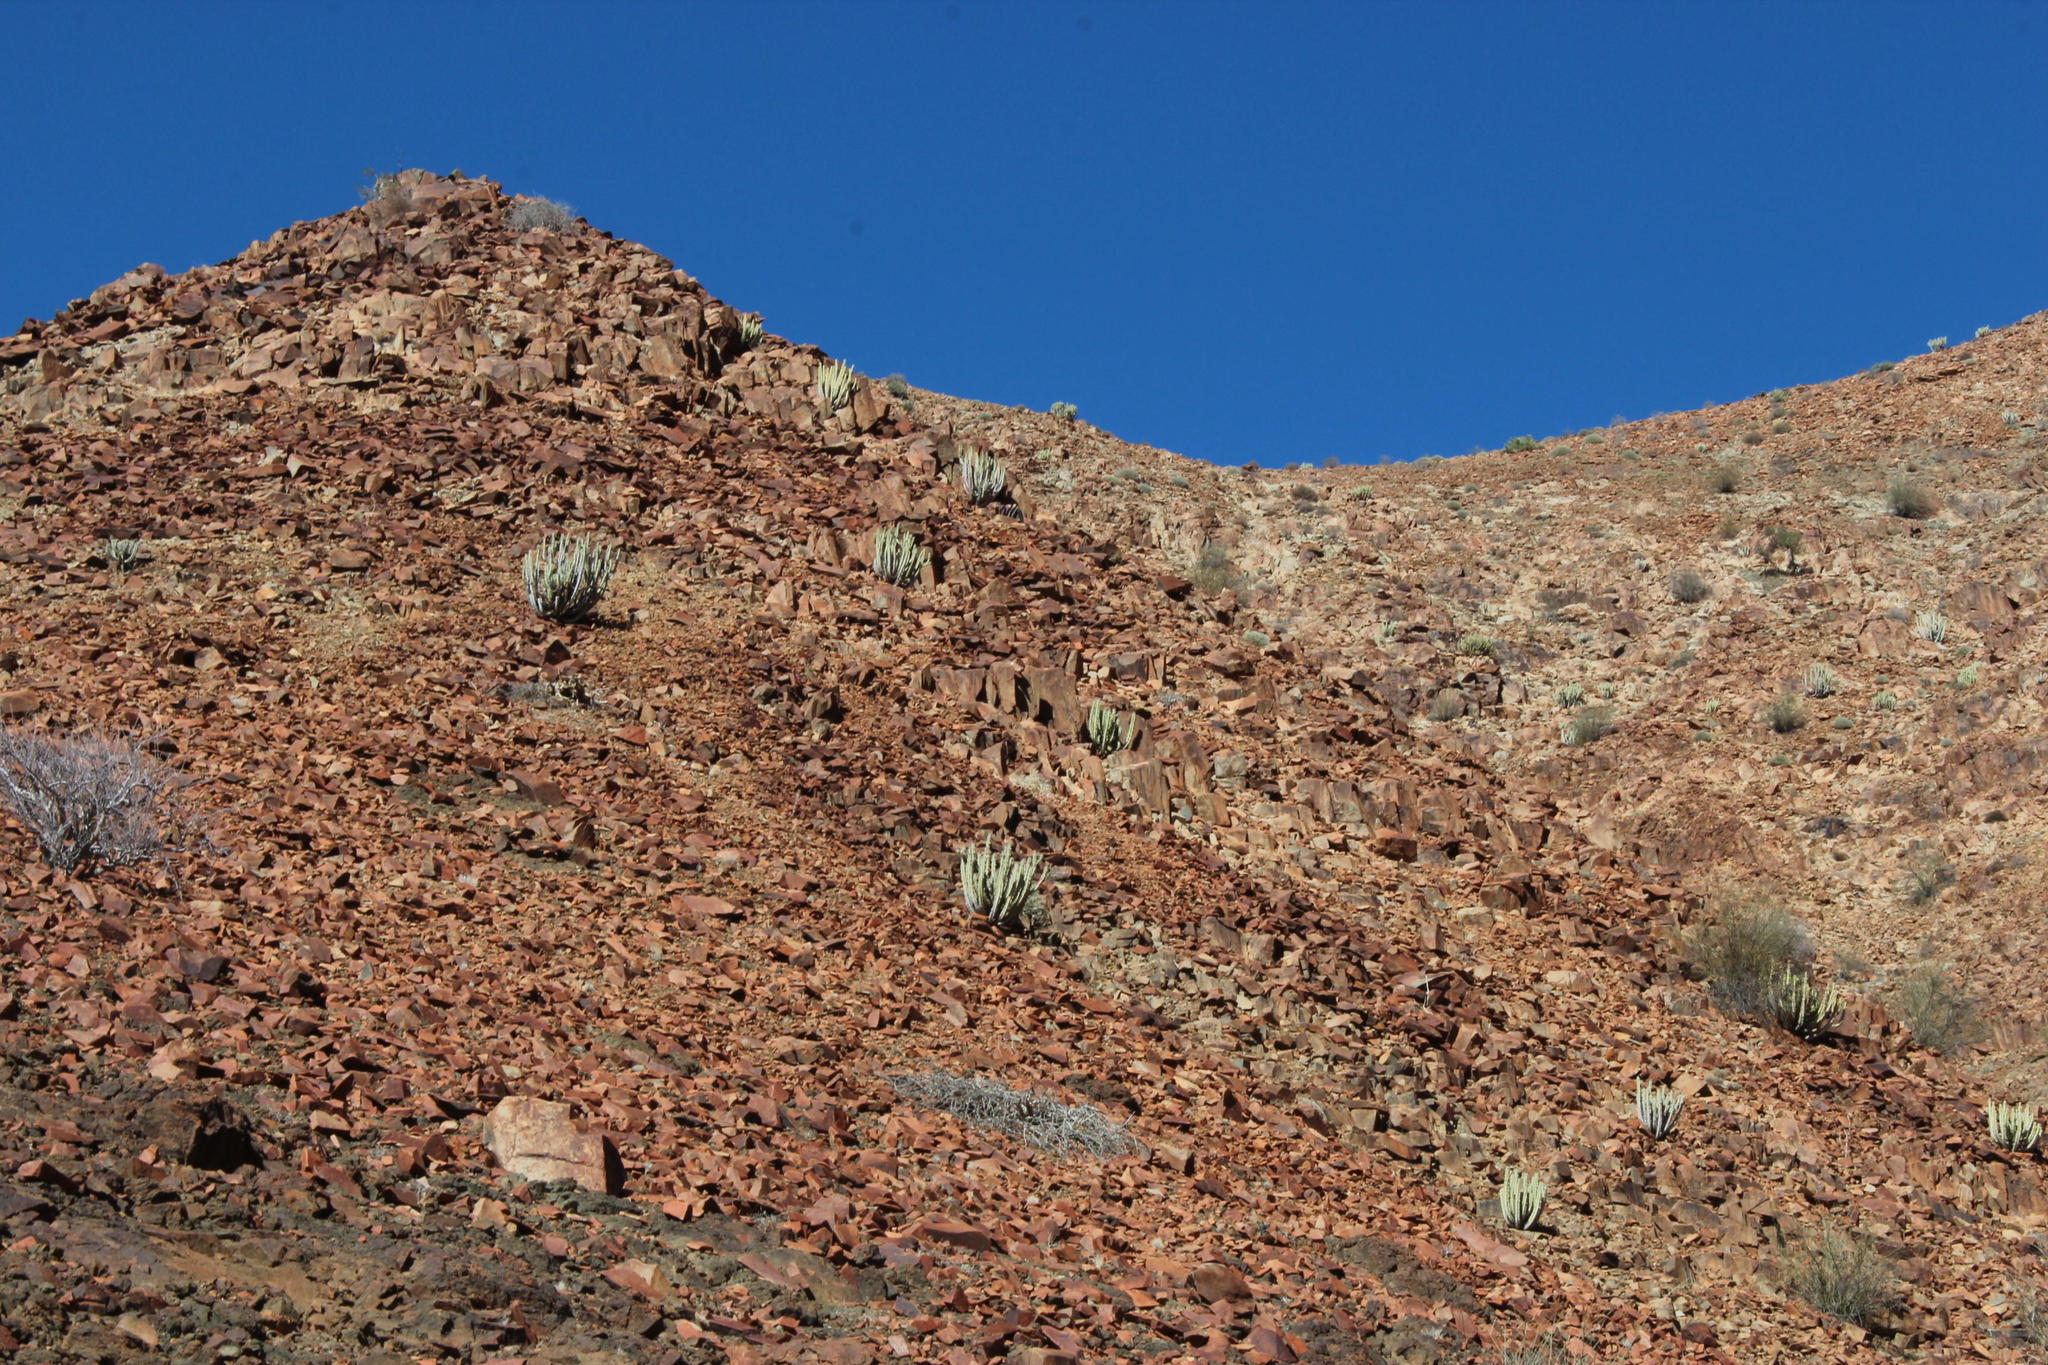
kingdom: Plantae
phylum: Tracheophyta
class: Magnoliopsida
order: Malpighiales
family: Euphorbiaceae
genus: Euphorbia
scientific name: Euphorbia virosa
